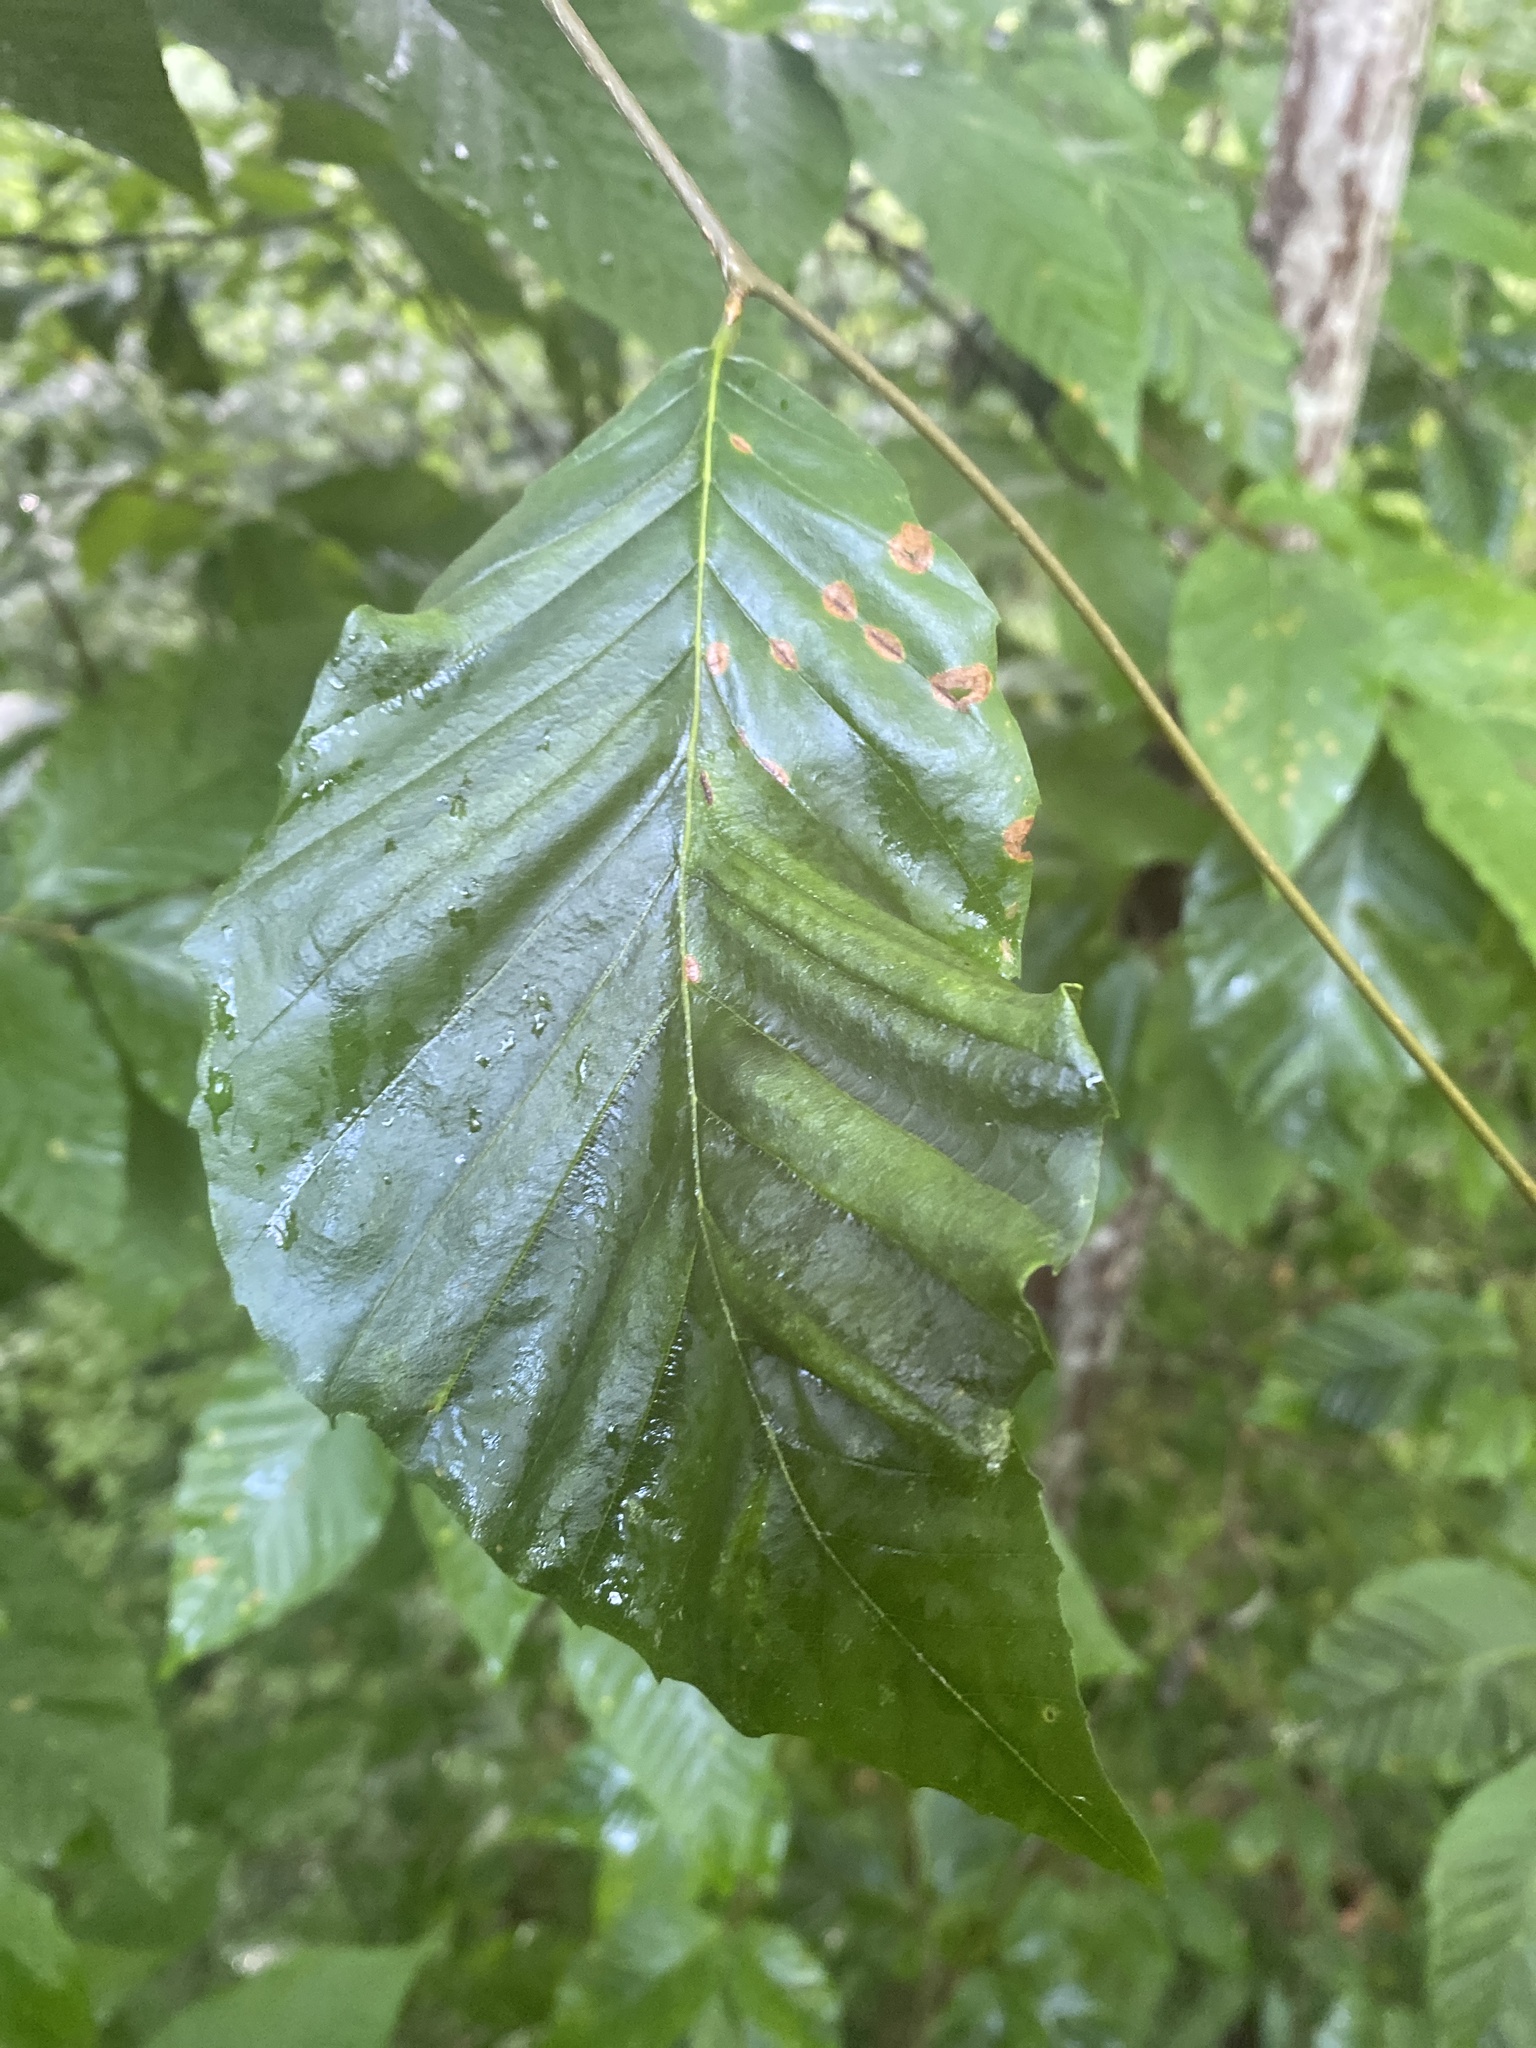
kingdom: Animalia
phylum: Nematoda
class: Chromadorea
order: Rhabditida
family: Anguinidae
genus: Litylenchus
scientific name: Litylenchus crenatae
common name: Beech leaf disease
